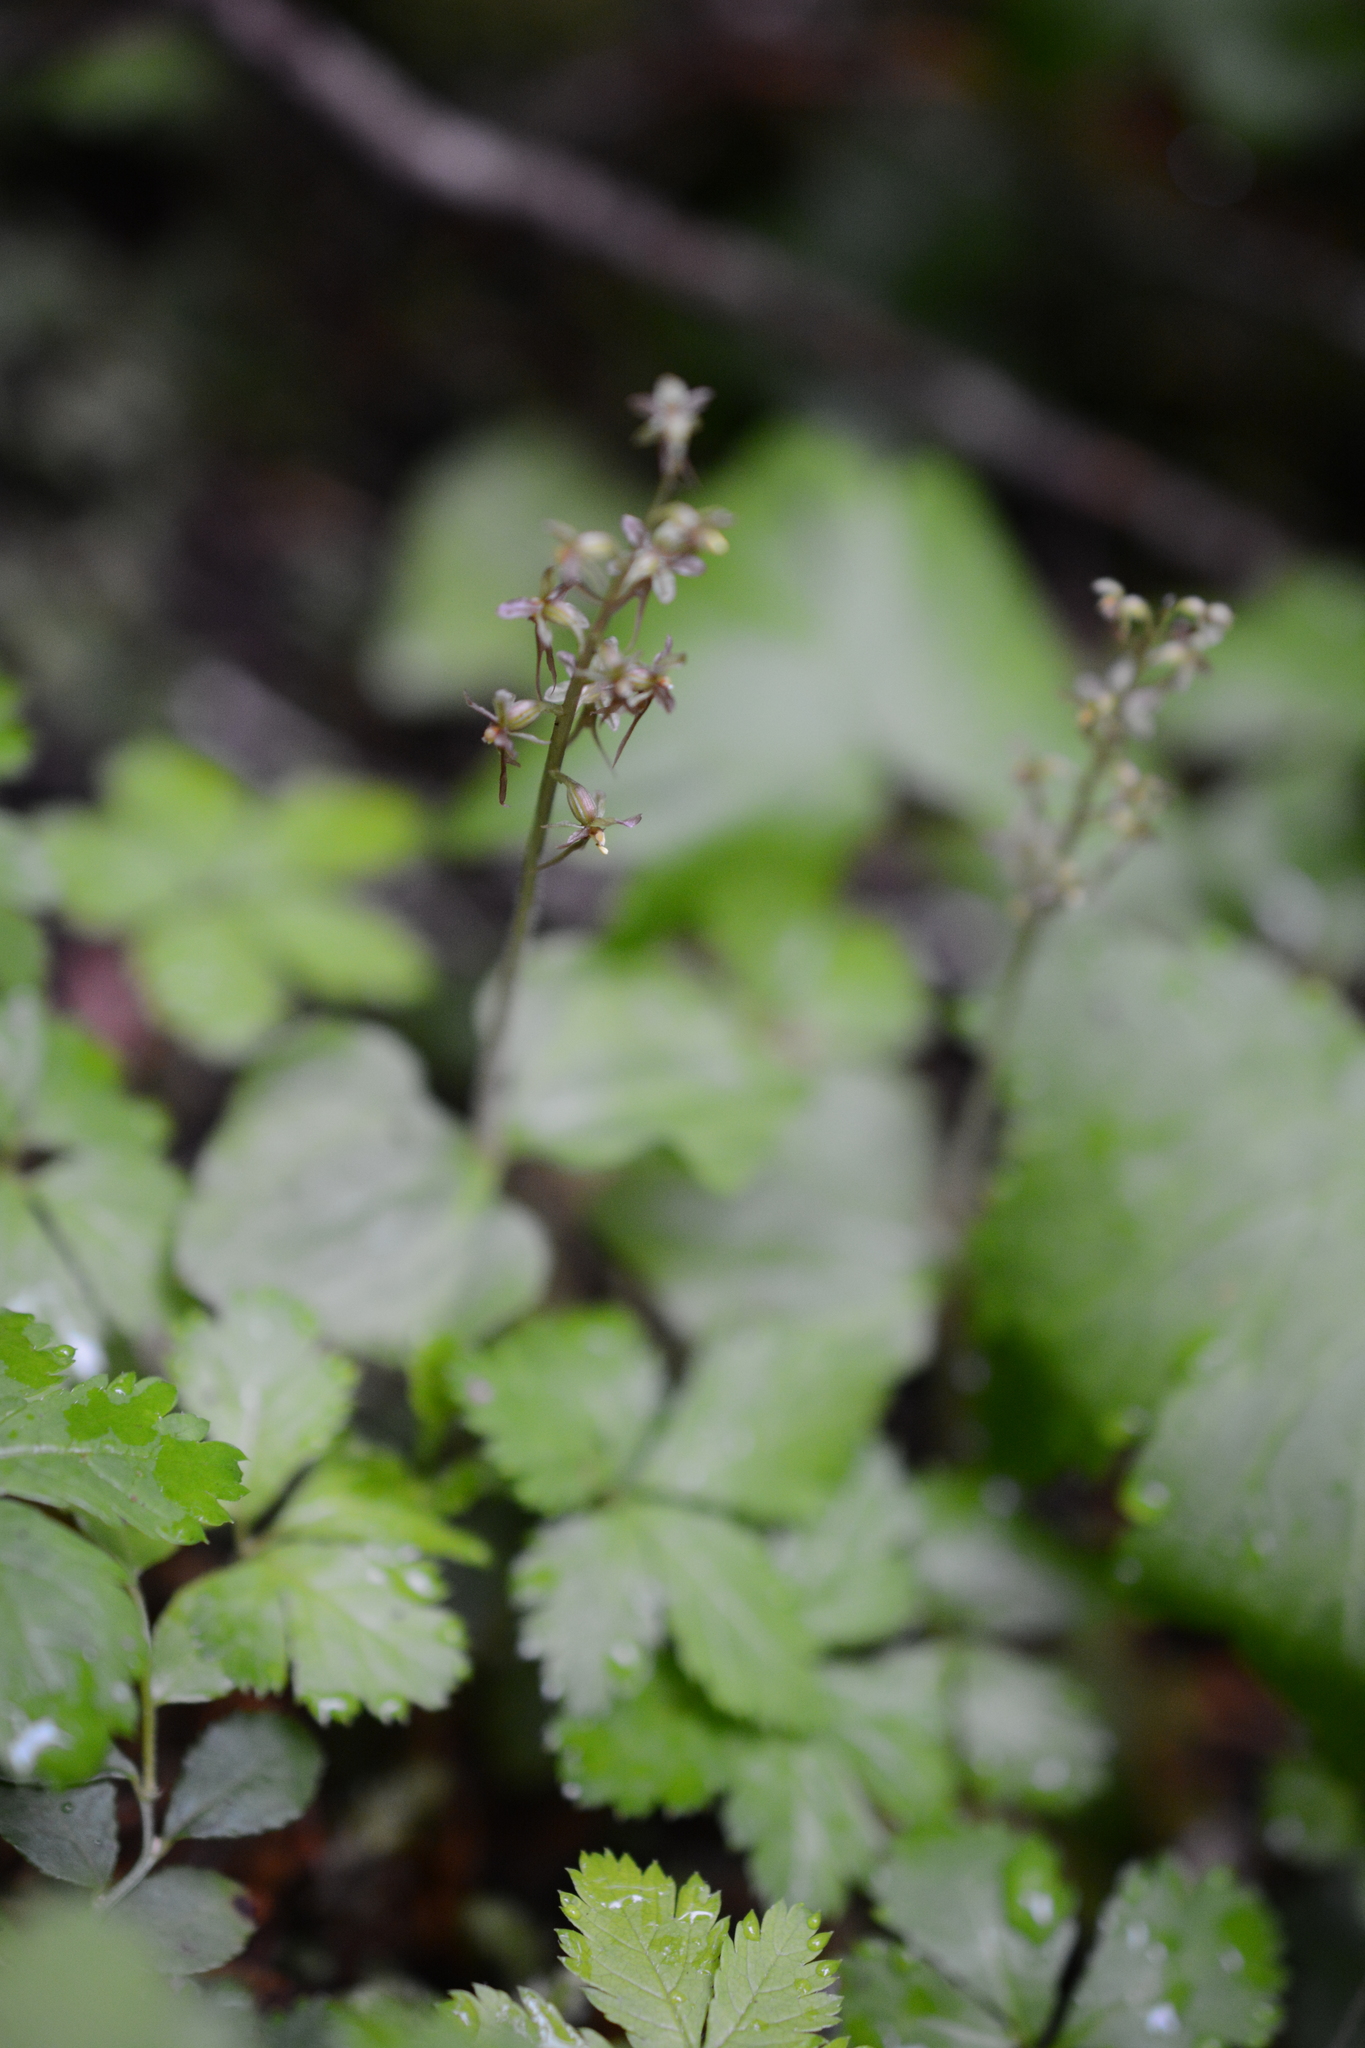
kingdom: Plantae
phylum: Tracheophyta
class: Liliopsida
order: Asparagales
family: Orchidaceae
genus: Neottia
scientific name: Neottia cordata
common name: Lesser twayblade
